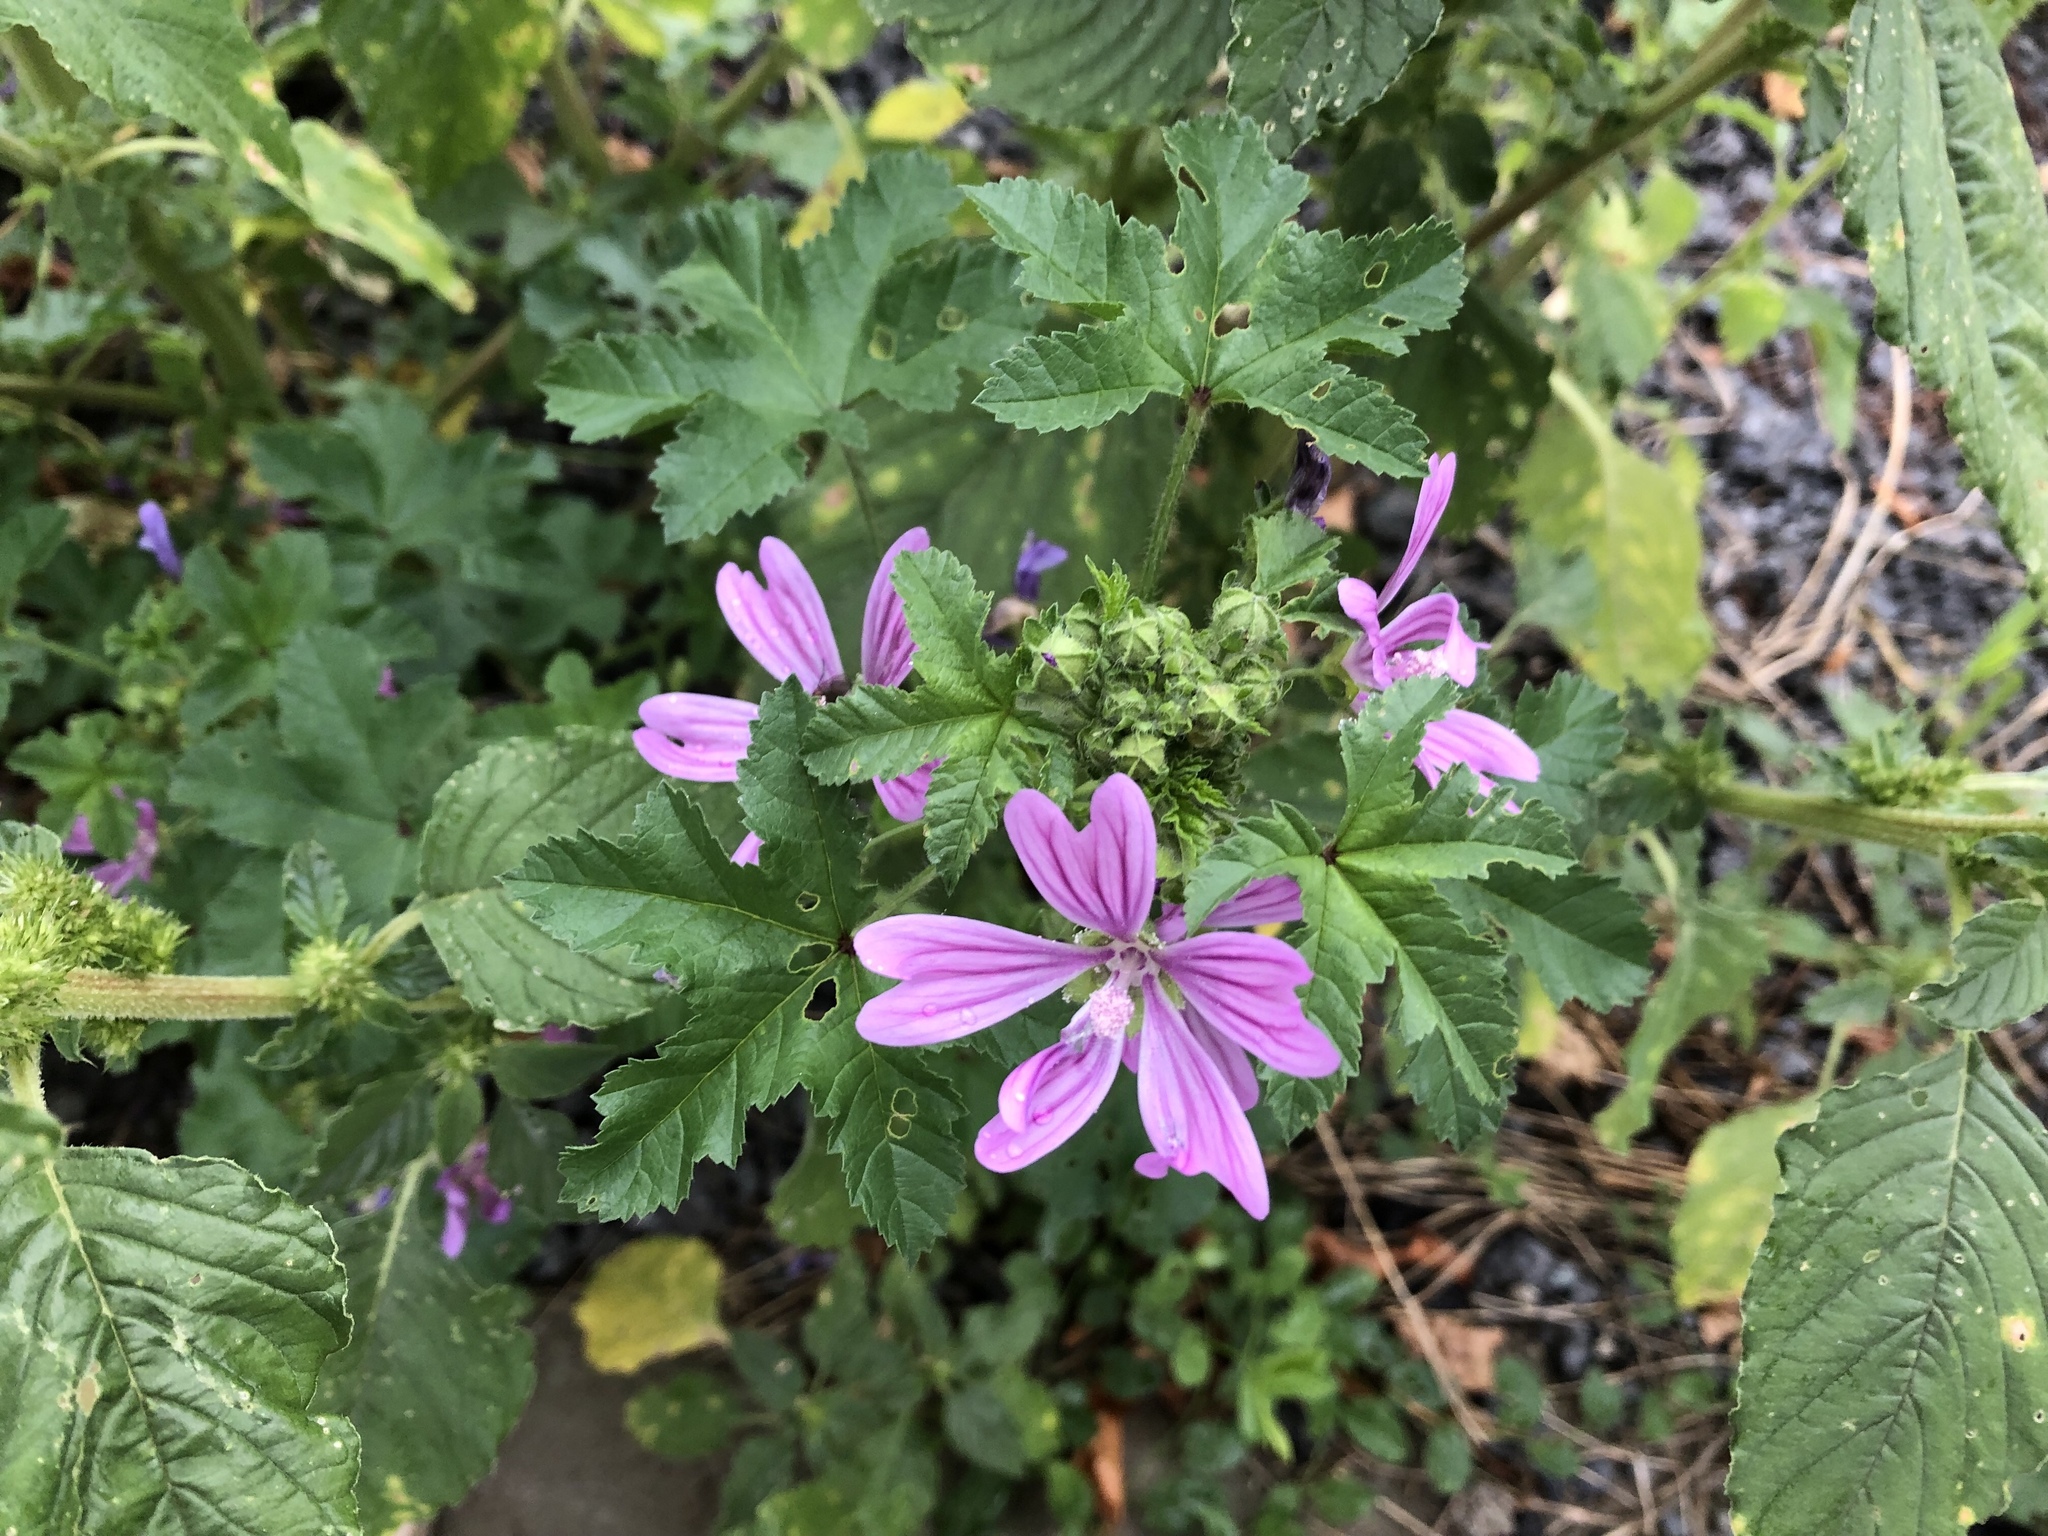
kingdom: Plantae
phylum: Tracheophyta
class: Magnoliopsida
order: Malvales
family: Malvaceae
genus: Malva
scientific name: Malva sylvestris
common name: Common mallow
